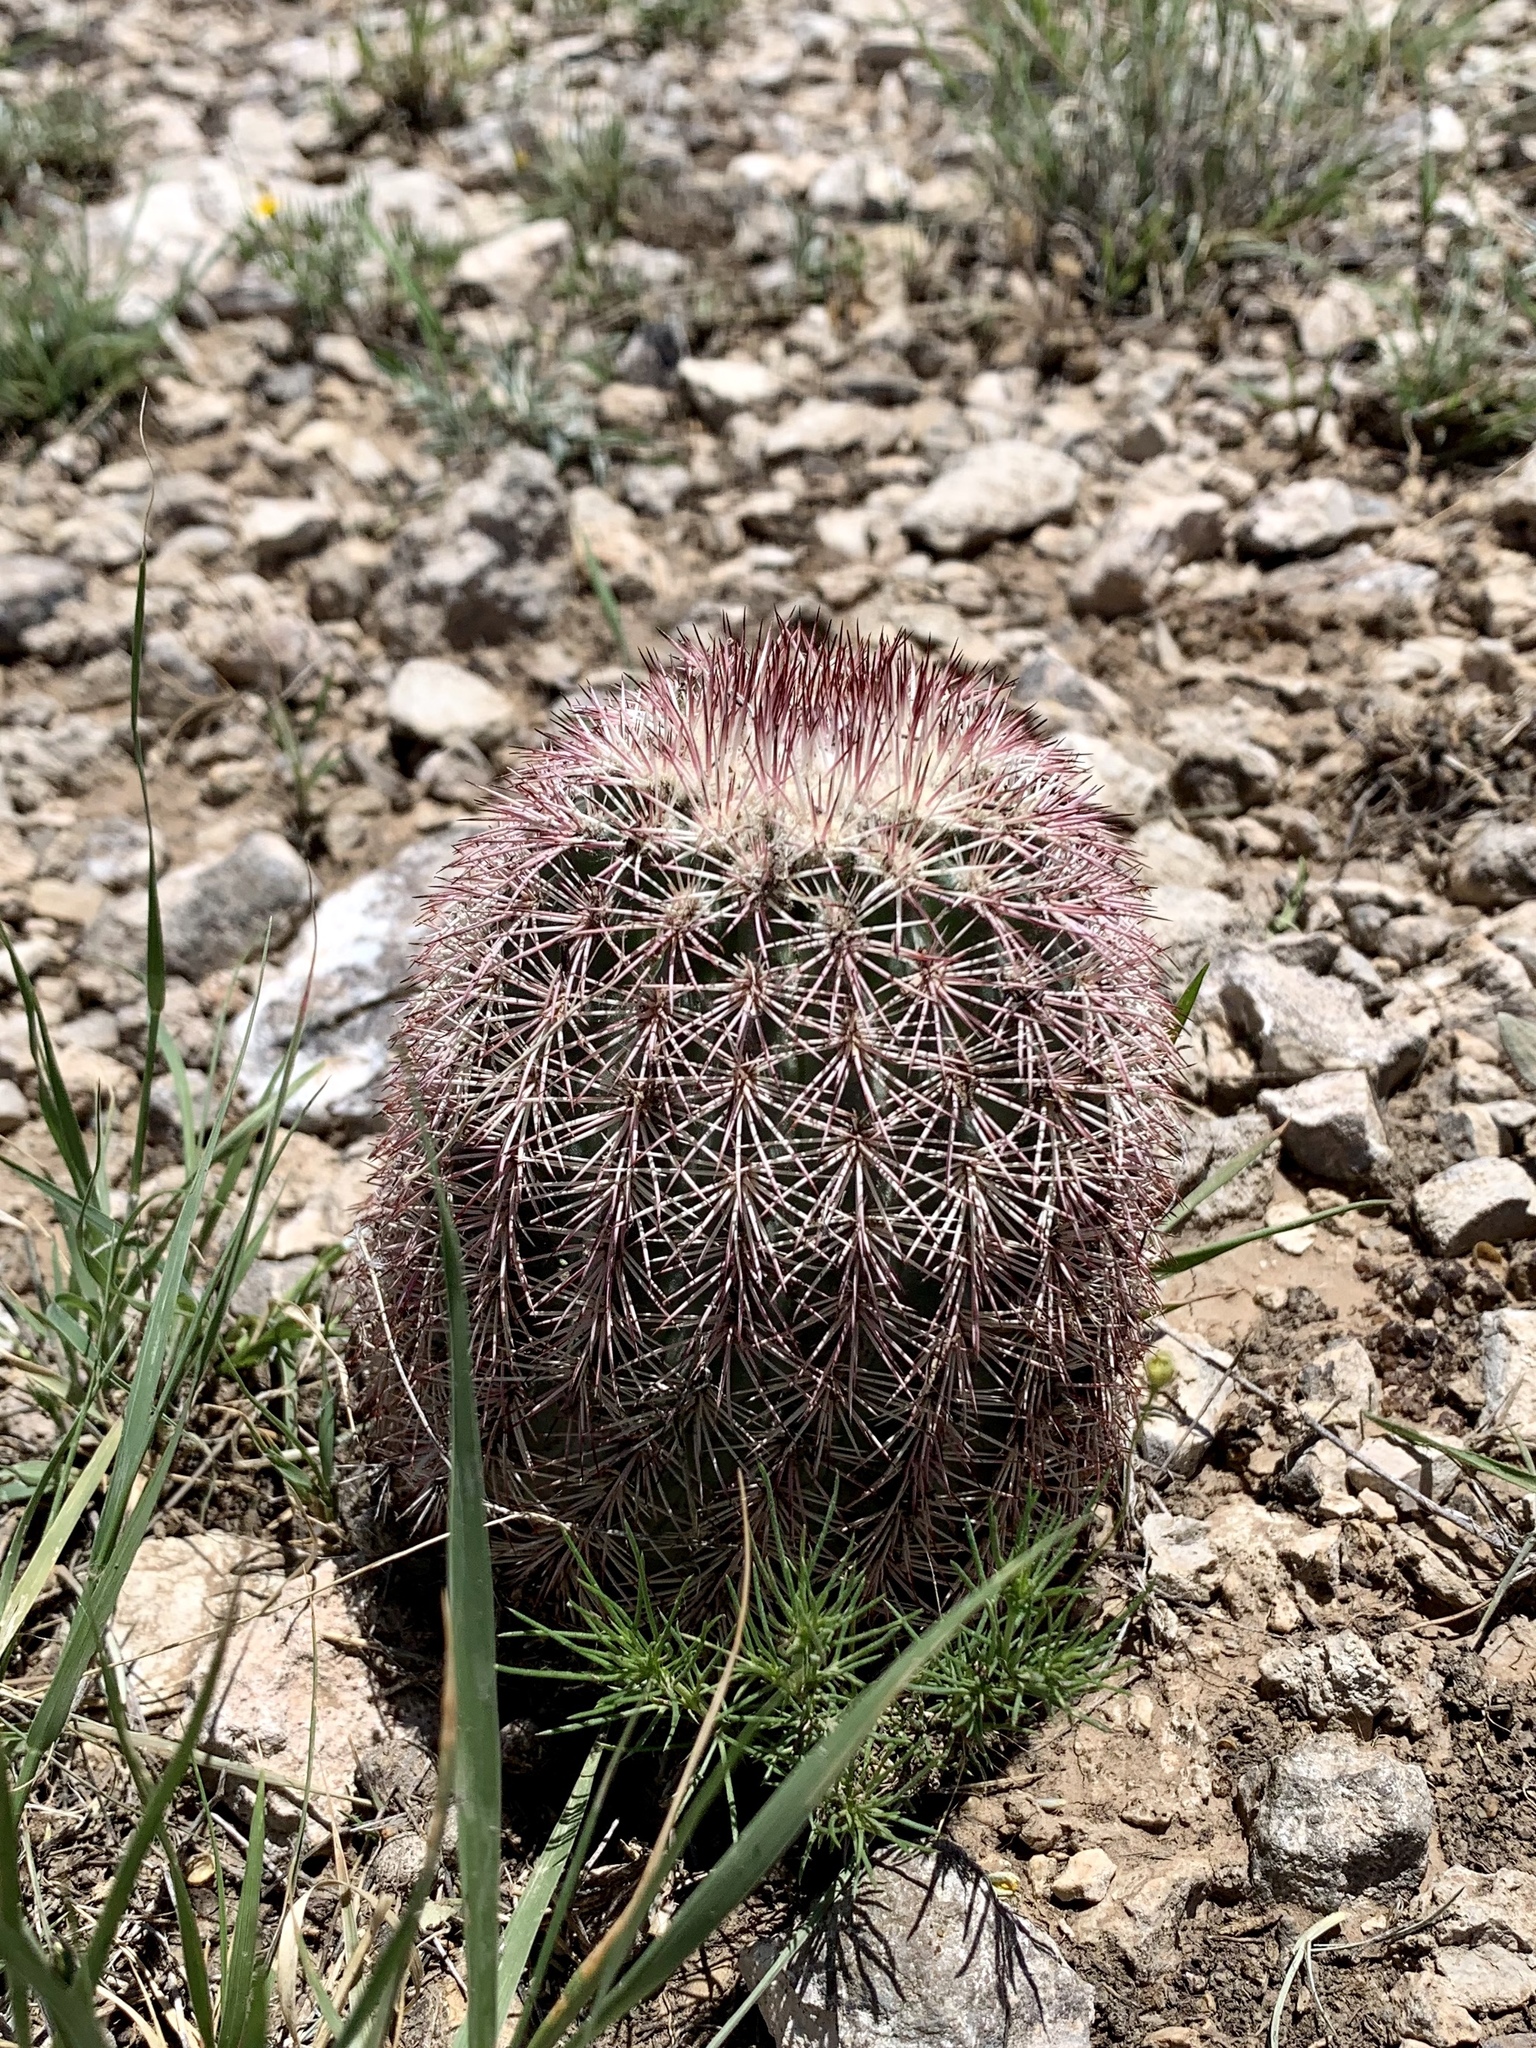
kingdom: Plantae
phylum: Tracheophyta
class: Magnoliopsida
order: Caryophyllales
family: Cactaceae
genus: Echinocereus
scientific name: Echinocereus dasyacanthus
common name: Spiny hedgehog cactus
